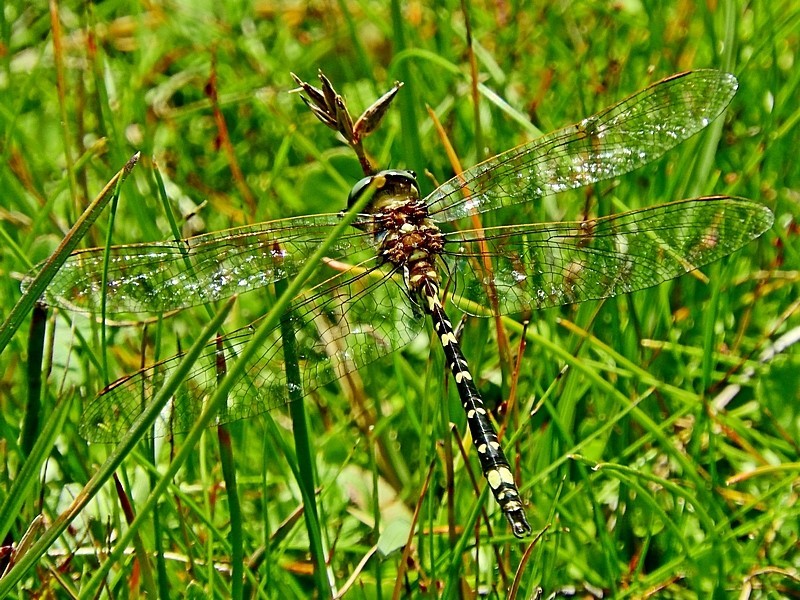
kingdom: Animalia
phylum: Arthropoda
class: Insecta
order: Odonata
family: Synthemistidae
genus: Synthemis
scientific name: Synthemis eustalacta
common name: Swamp tigertail
